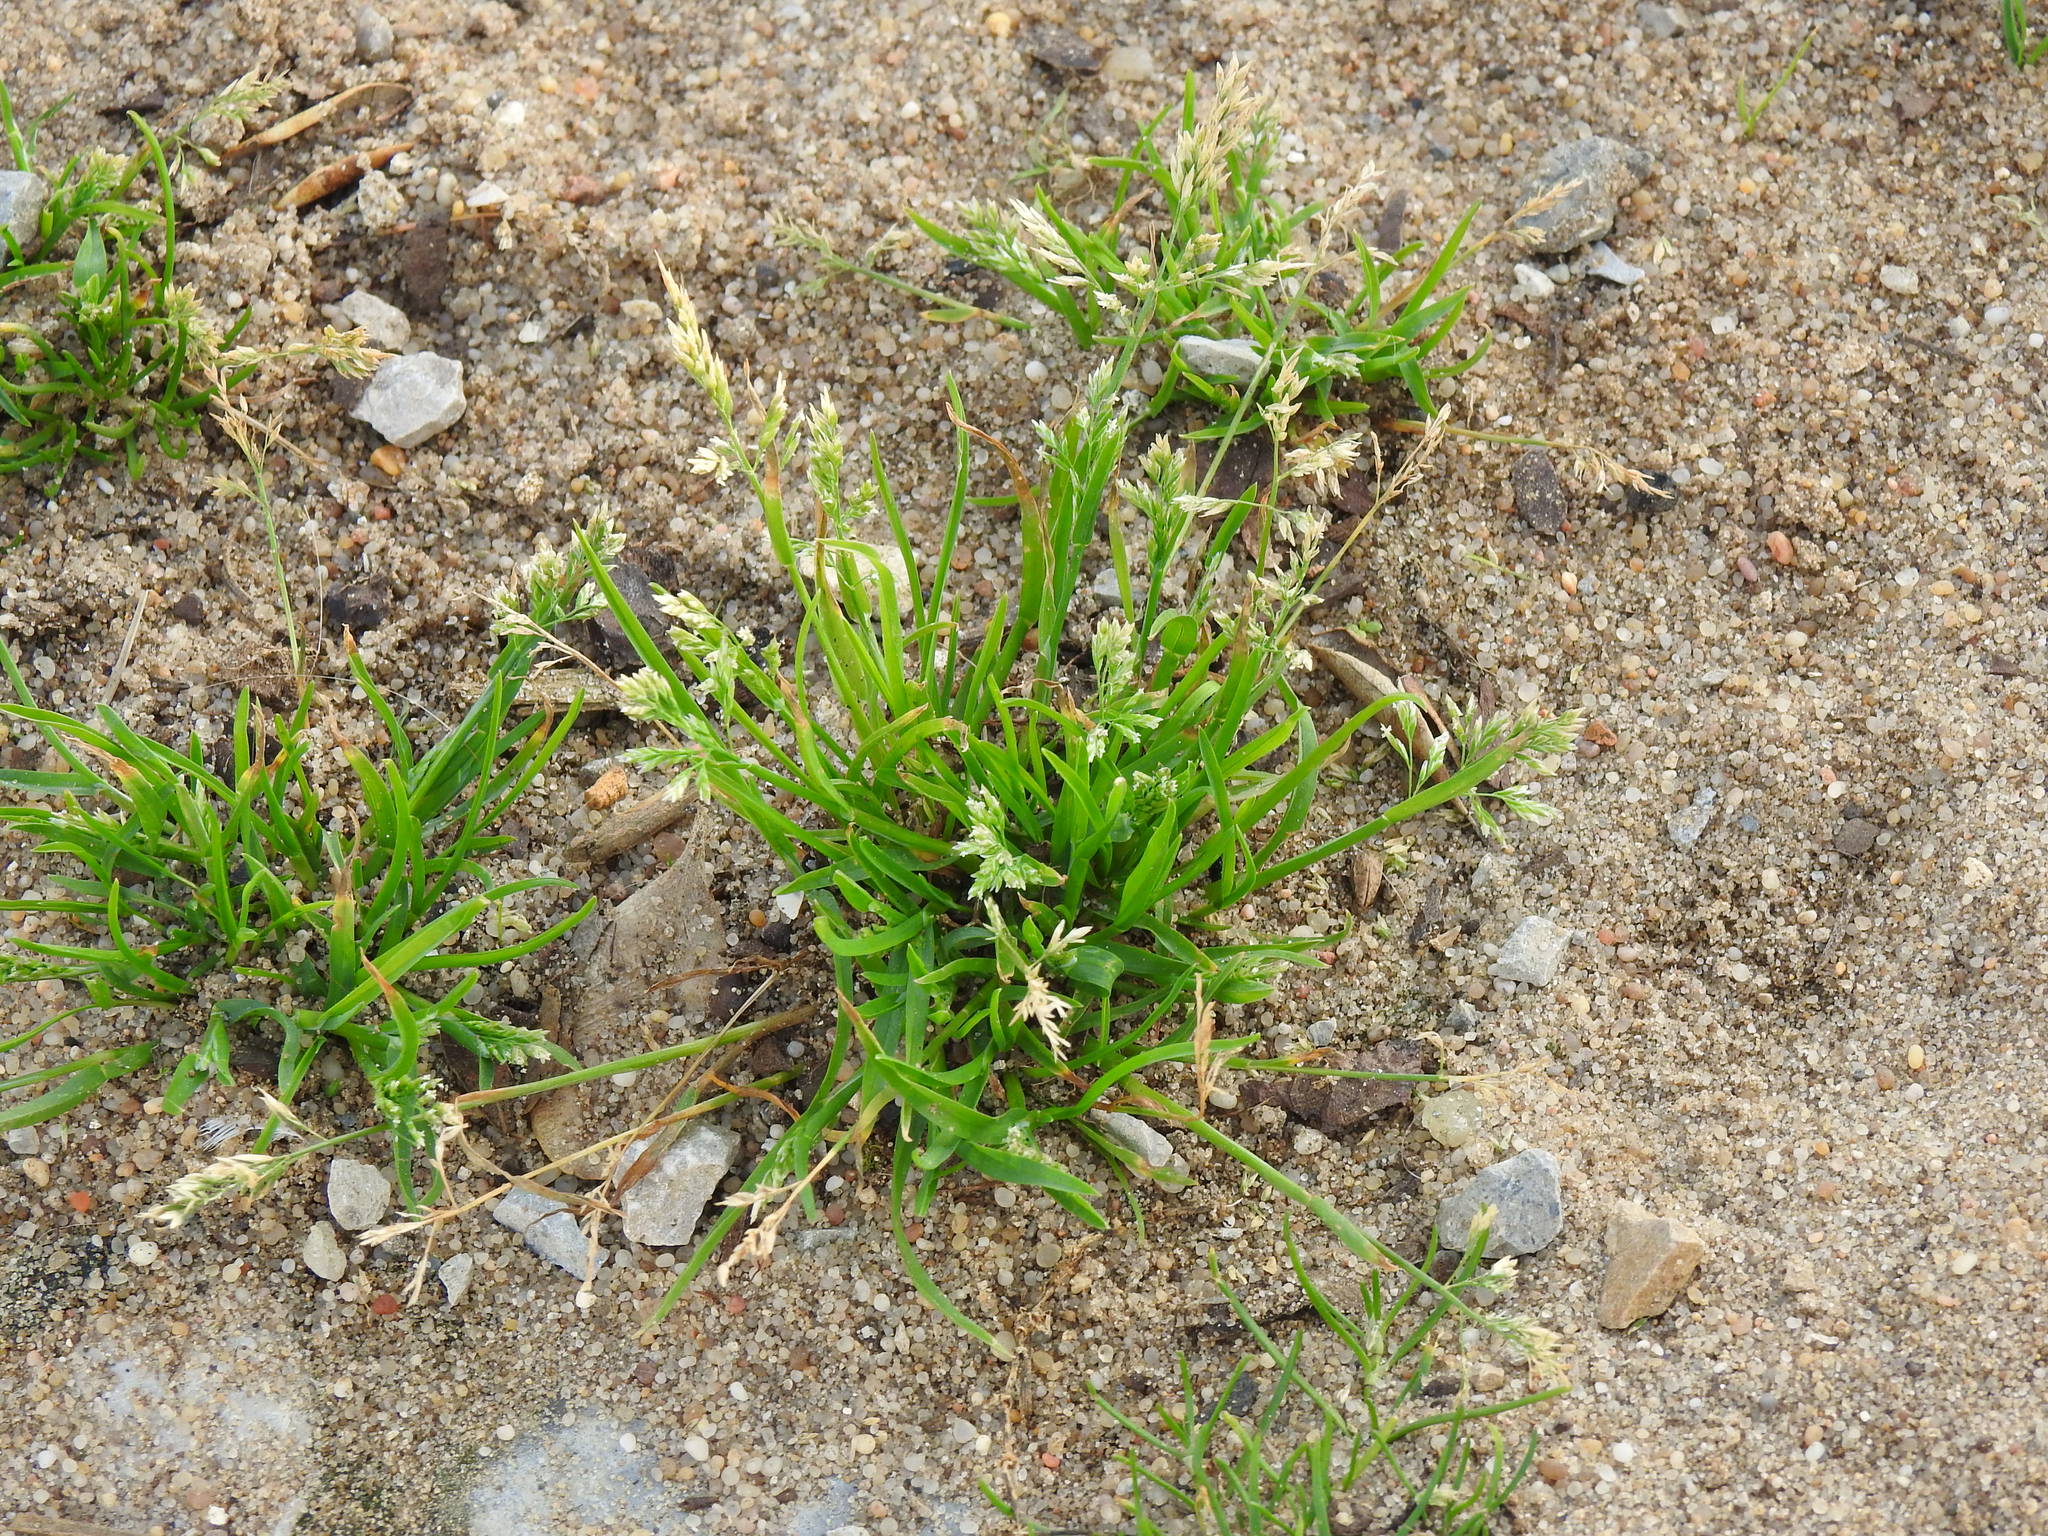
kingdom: Plantae
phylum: Tracheophyta
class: Liliopsida
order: Poales
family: Poaceae
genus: Poa
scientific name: Poa annua
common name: Annual bluegrass
